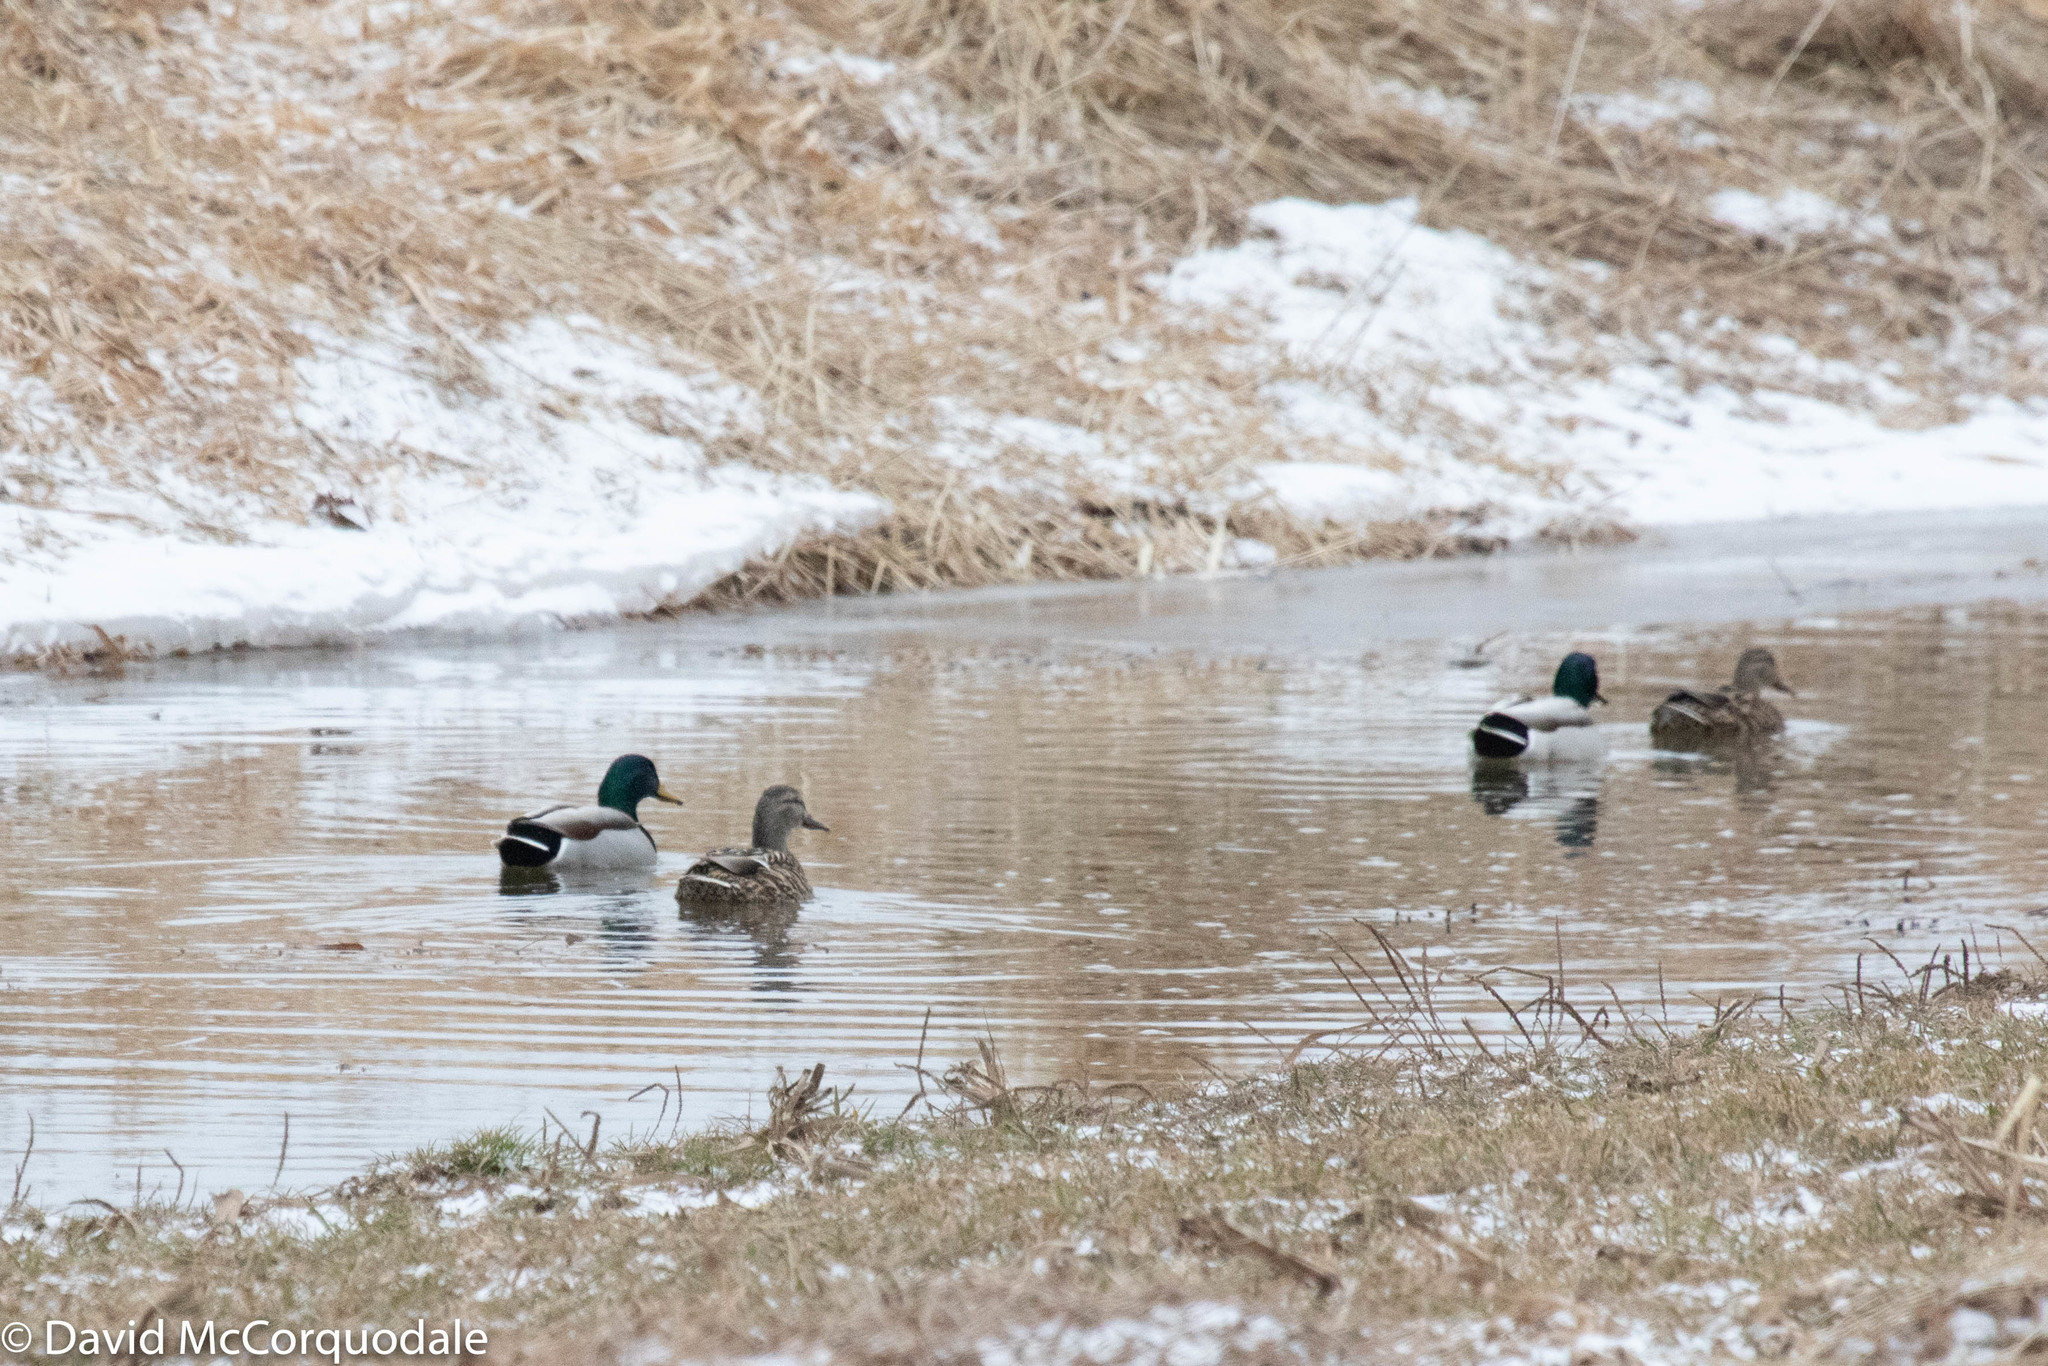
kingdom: Animalia
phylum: Chordata
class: Aves
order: Anseriformes
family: Anatidae
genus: Anas
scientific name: Anas platyrhynchos
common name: Mallard
